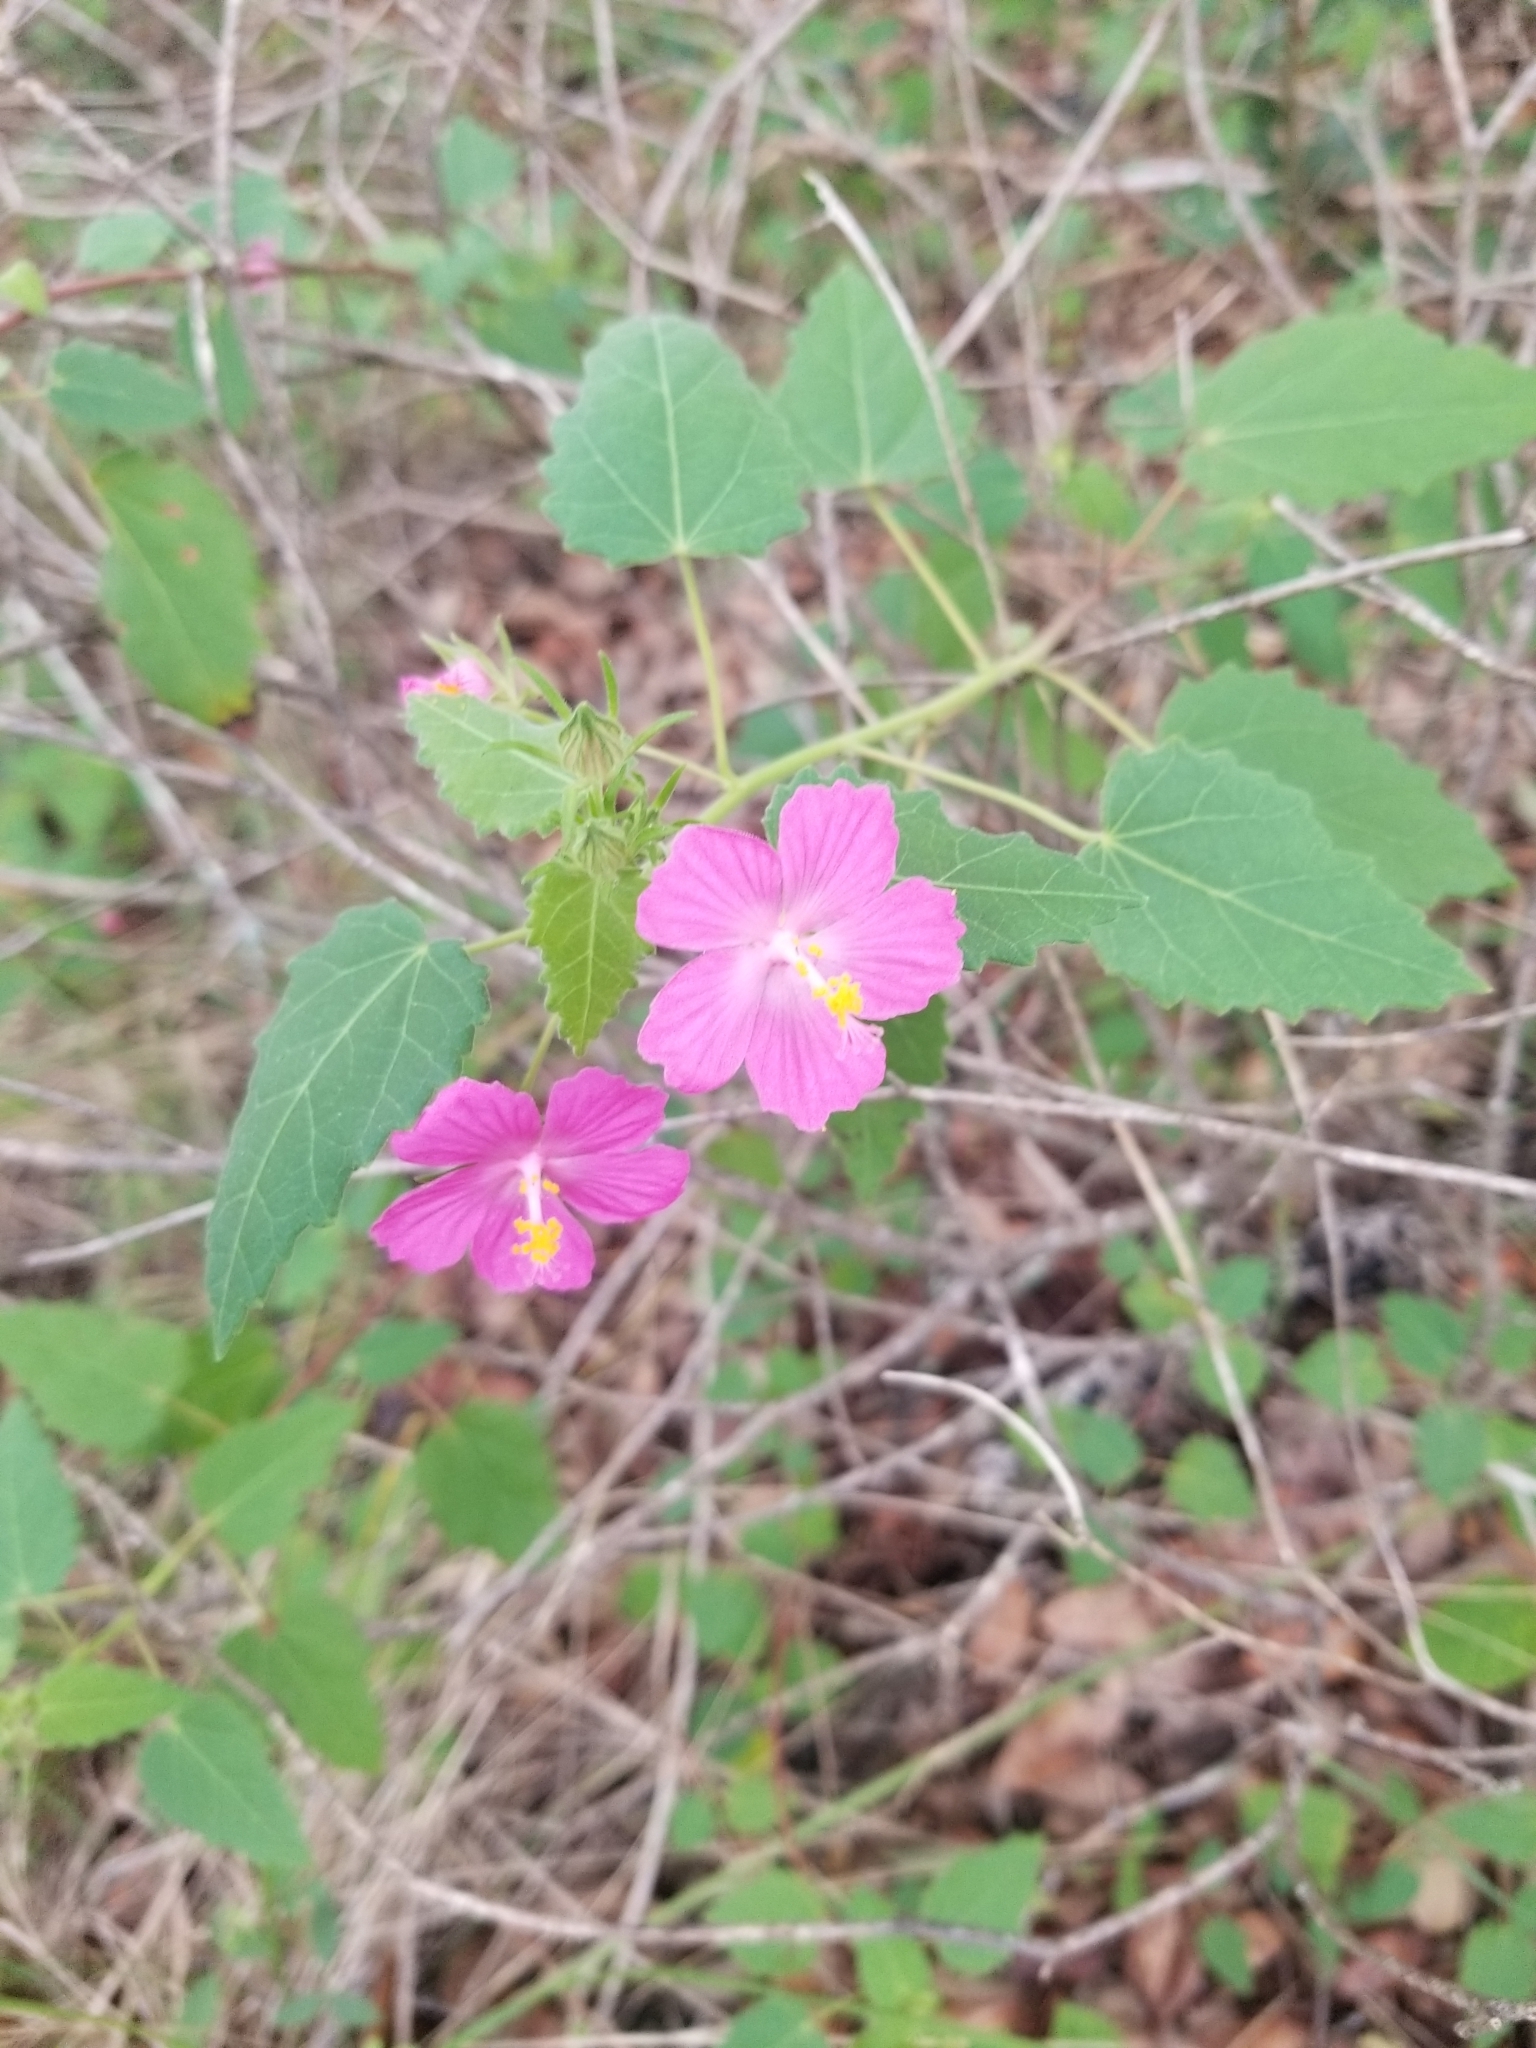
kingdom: Plantae
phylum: Tracheophyta
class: Magnoliopsida
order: Malvales
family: Malvaceae
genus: Pavonia
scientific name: Pavonia lasiopetala
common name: Texas swamp-mallow
